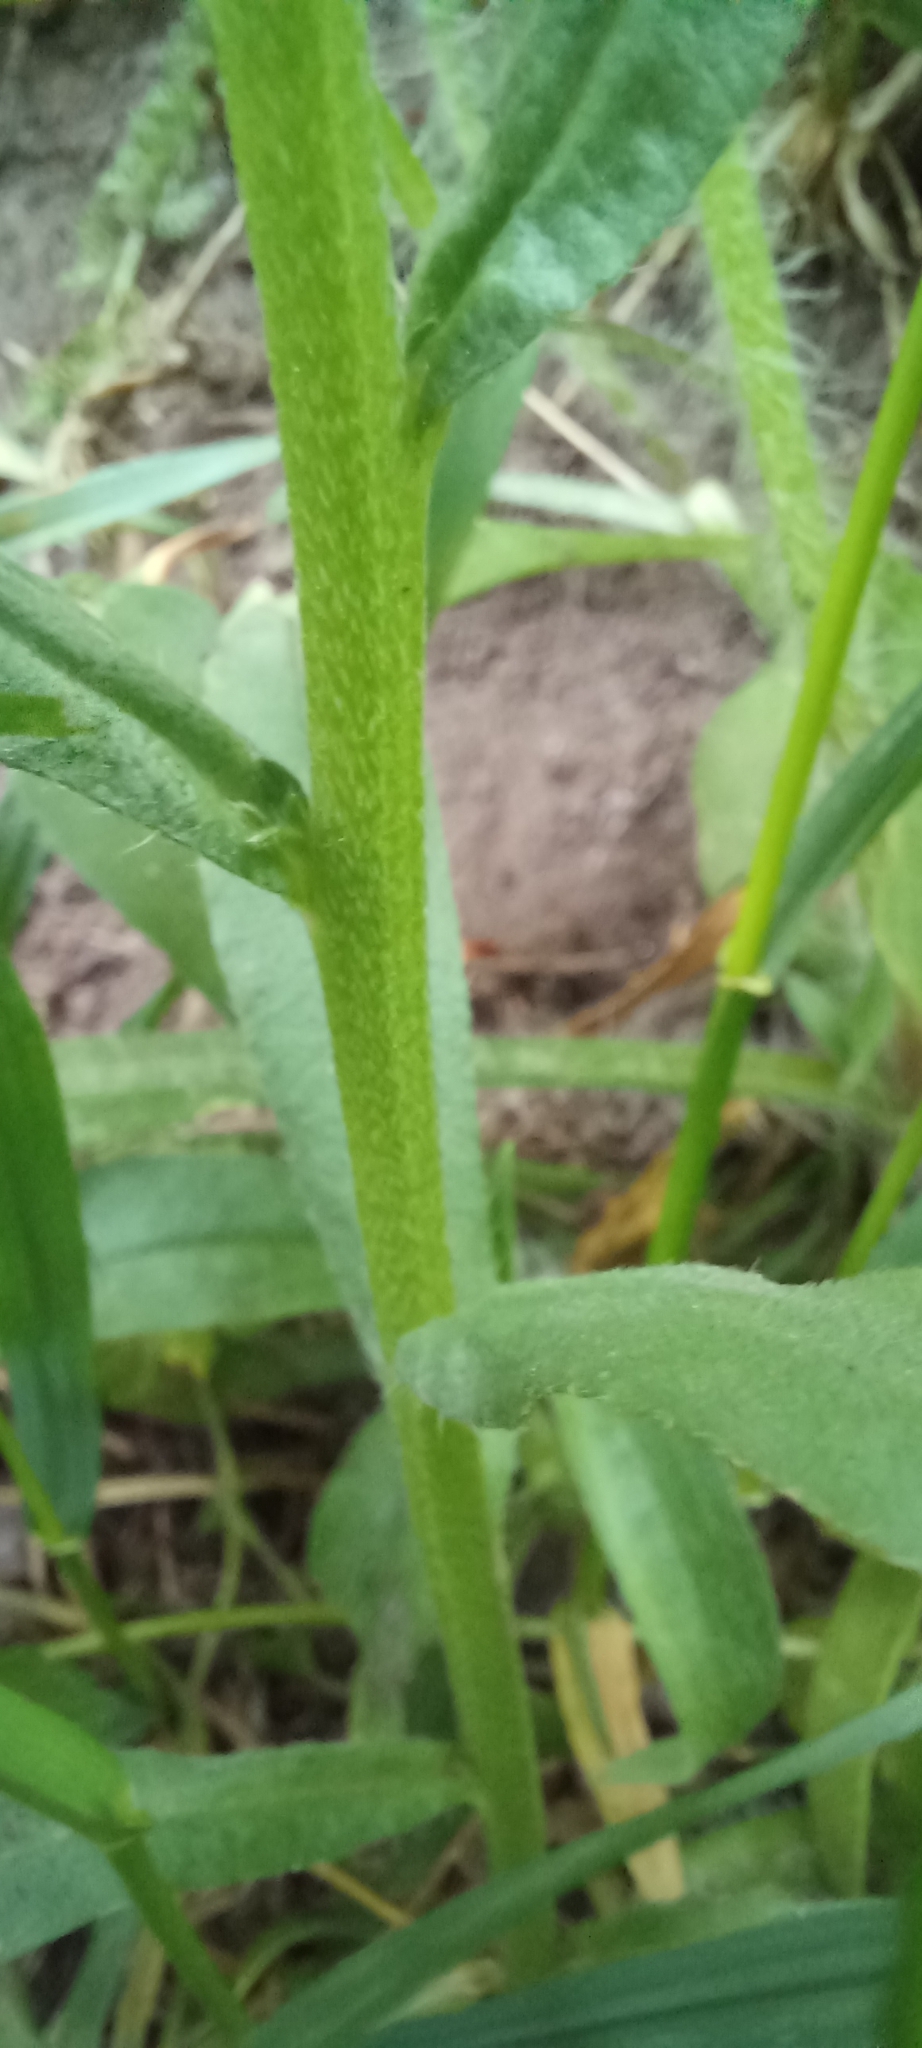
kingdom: Plantae
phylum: Tracheophyta
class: Magnoliopsida
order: Boraginales
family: Boraginaceae
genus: Buglossoides
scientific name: Buglossoides arvensis
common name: Corn gromwell
